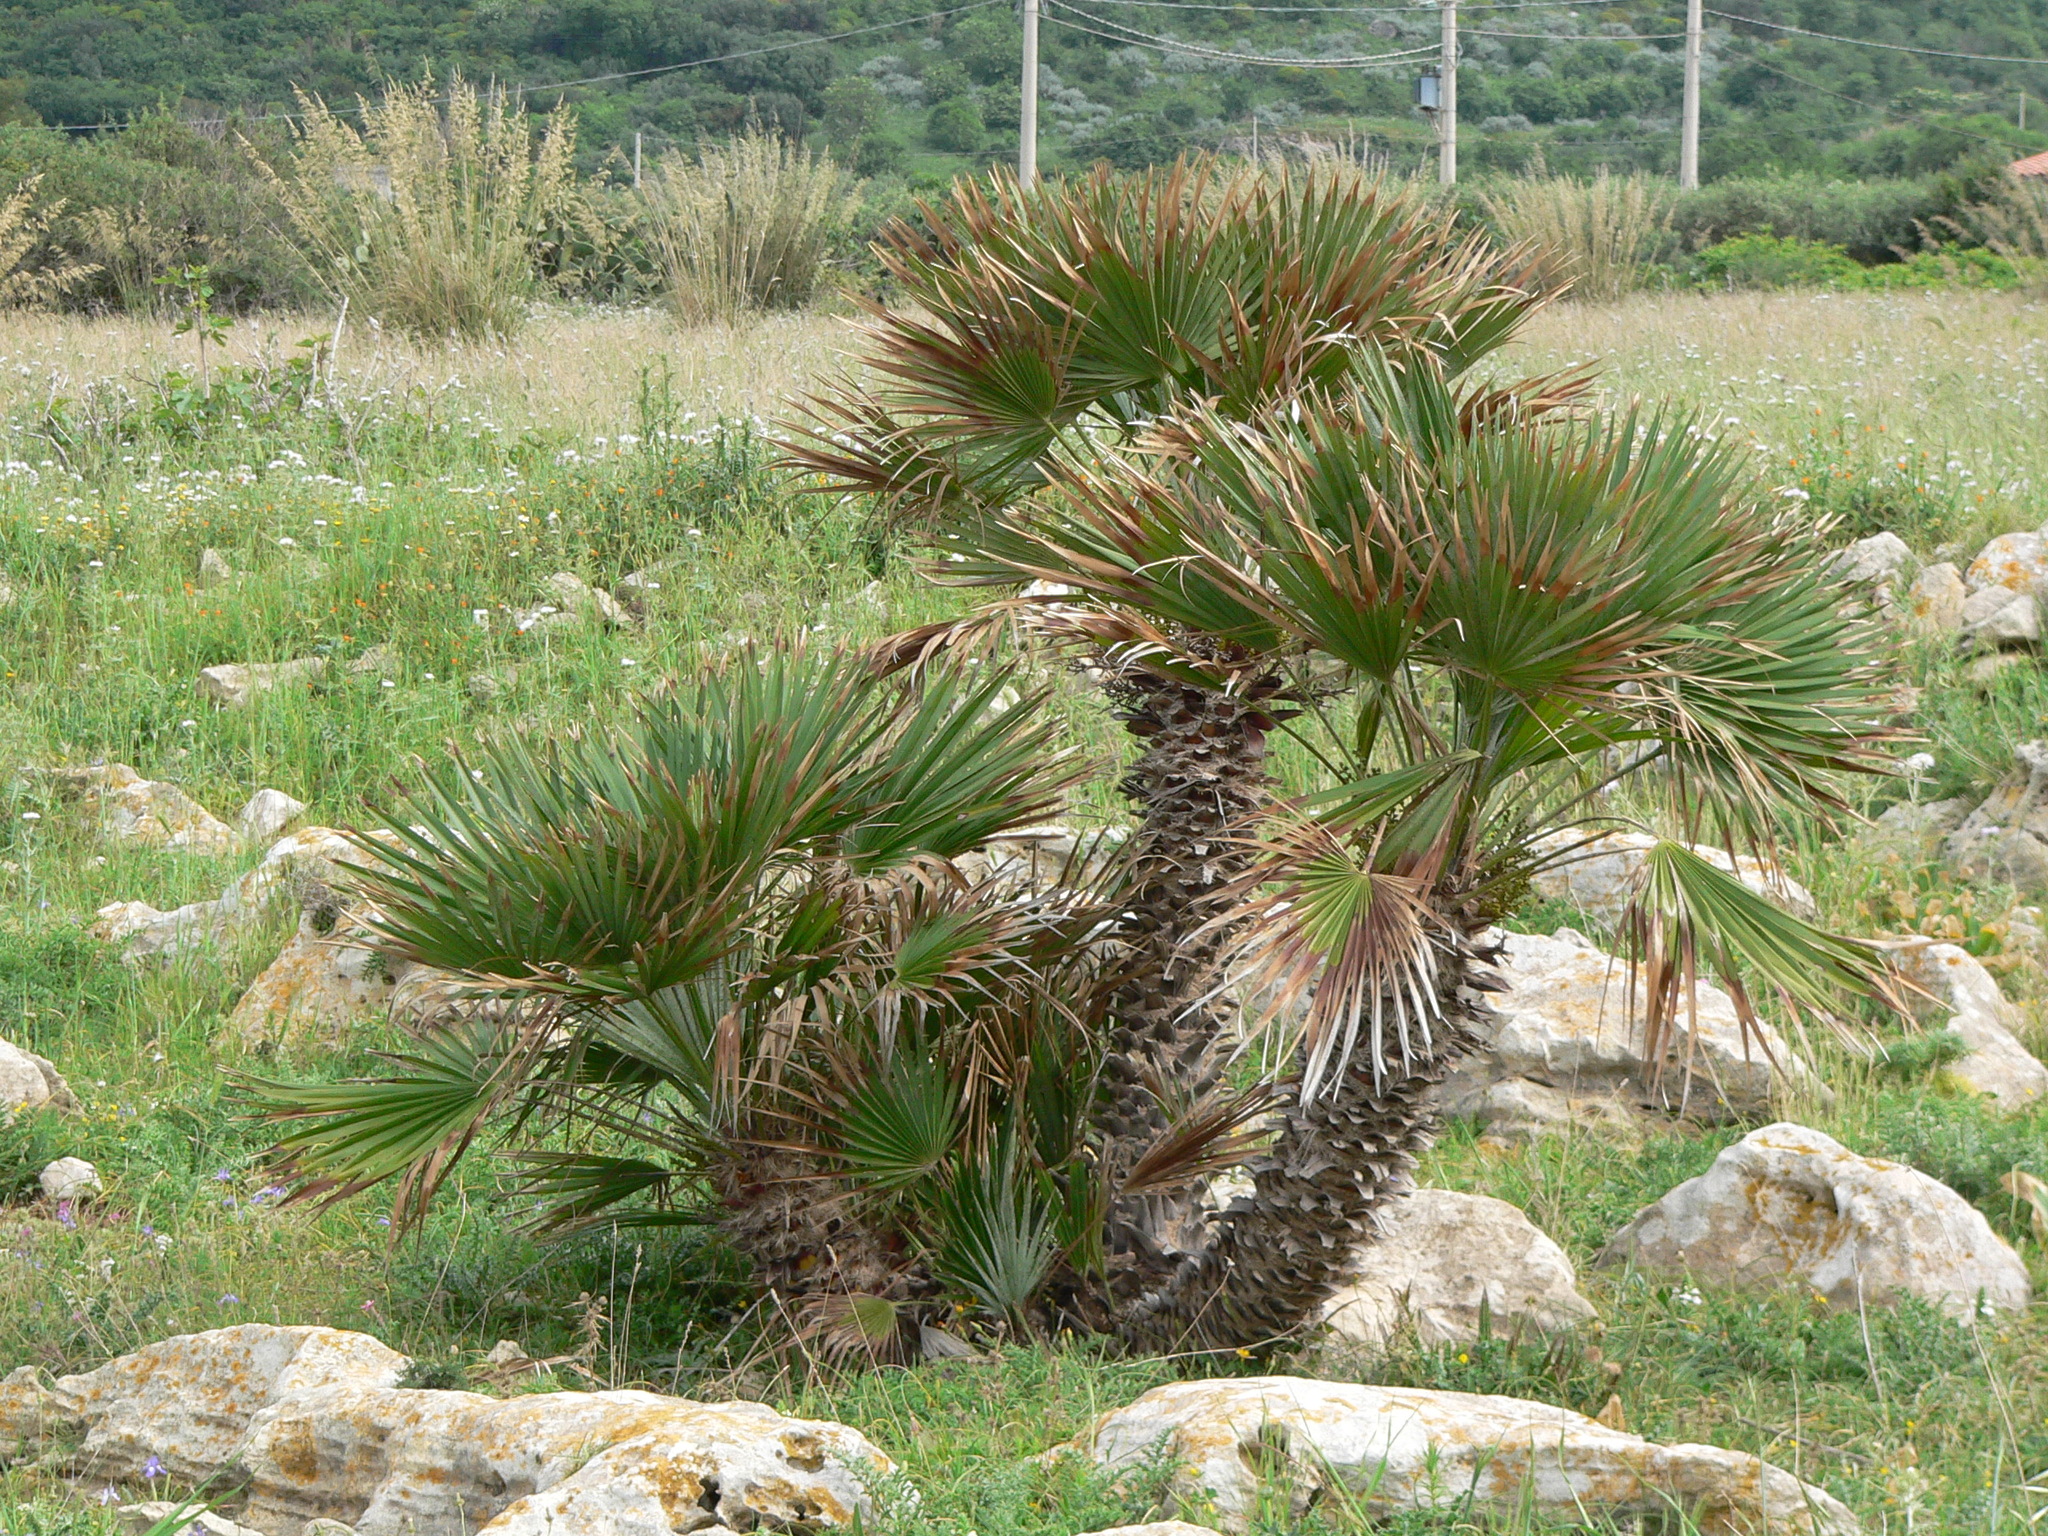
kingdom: Plantae
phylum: Tracheophyta
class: Liliopsida
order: Arecales
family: Arecaceae
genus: Chamaerops
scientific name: Chamaerops humilis
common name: Dwarf fan palm
